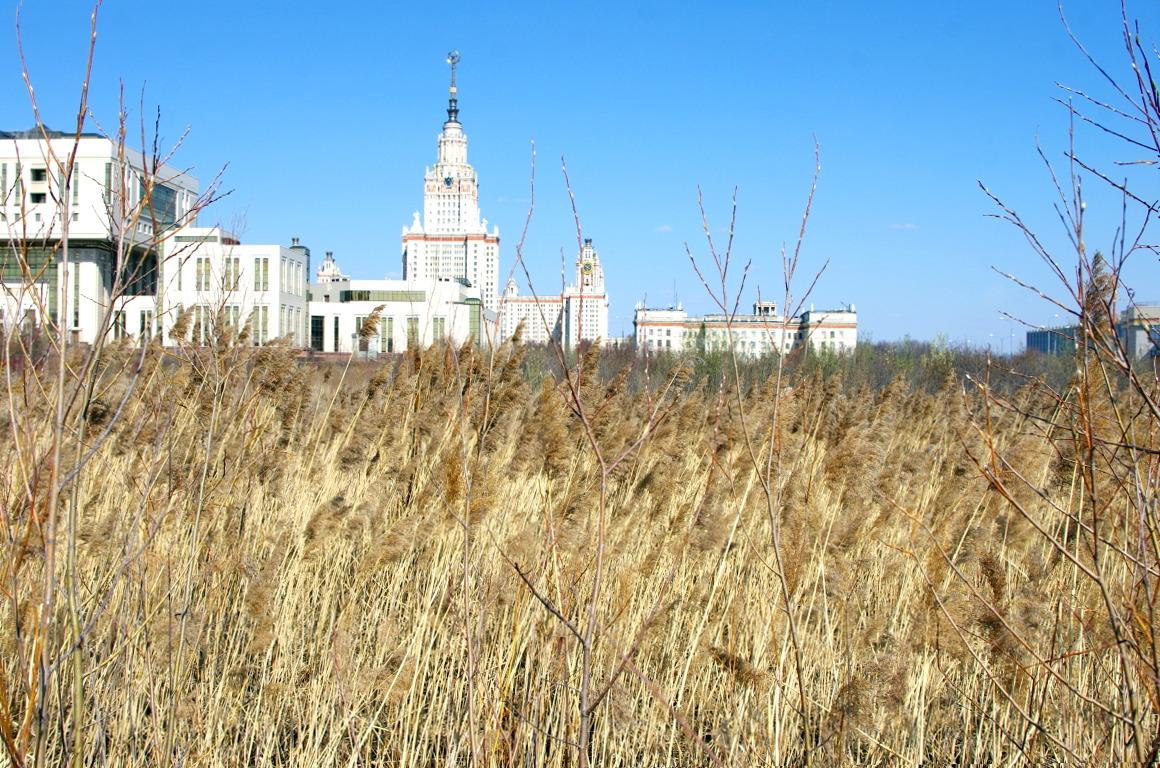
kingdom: Plantae
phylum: Tracheophyta
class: Liliopsida
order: Poales
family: Poaceae
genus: Phragmites
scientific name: Phragmites australis
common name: Common reed
